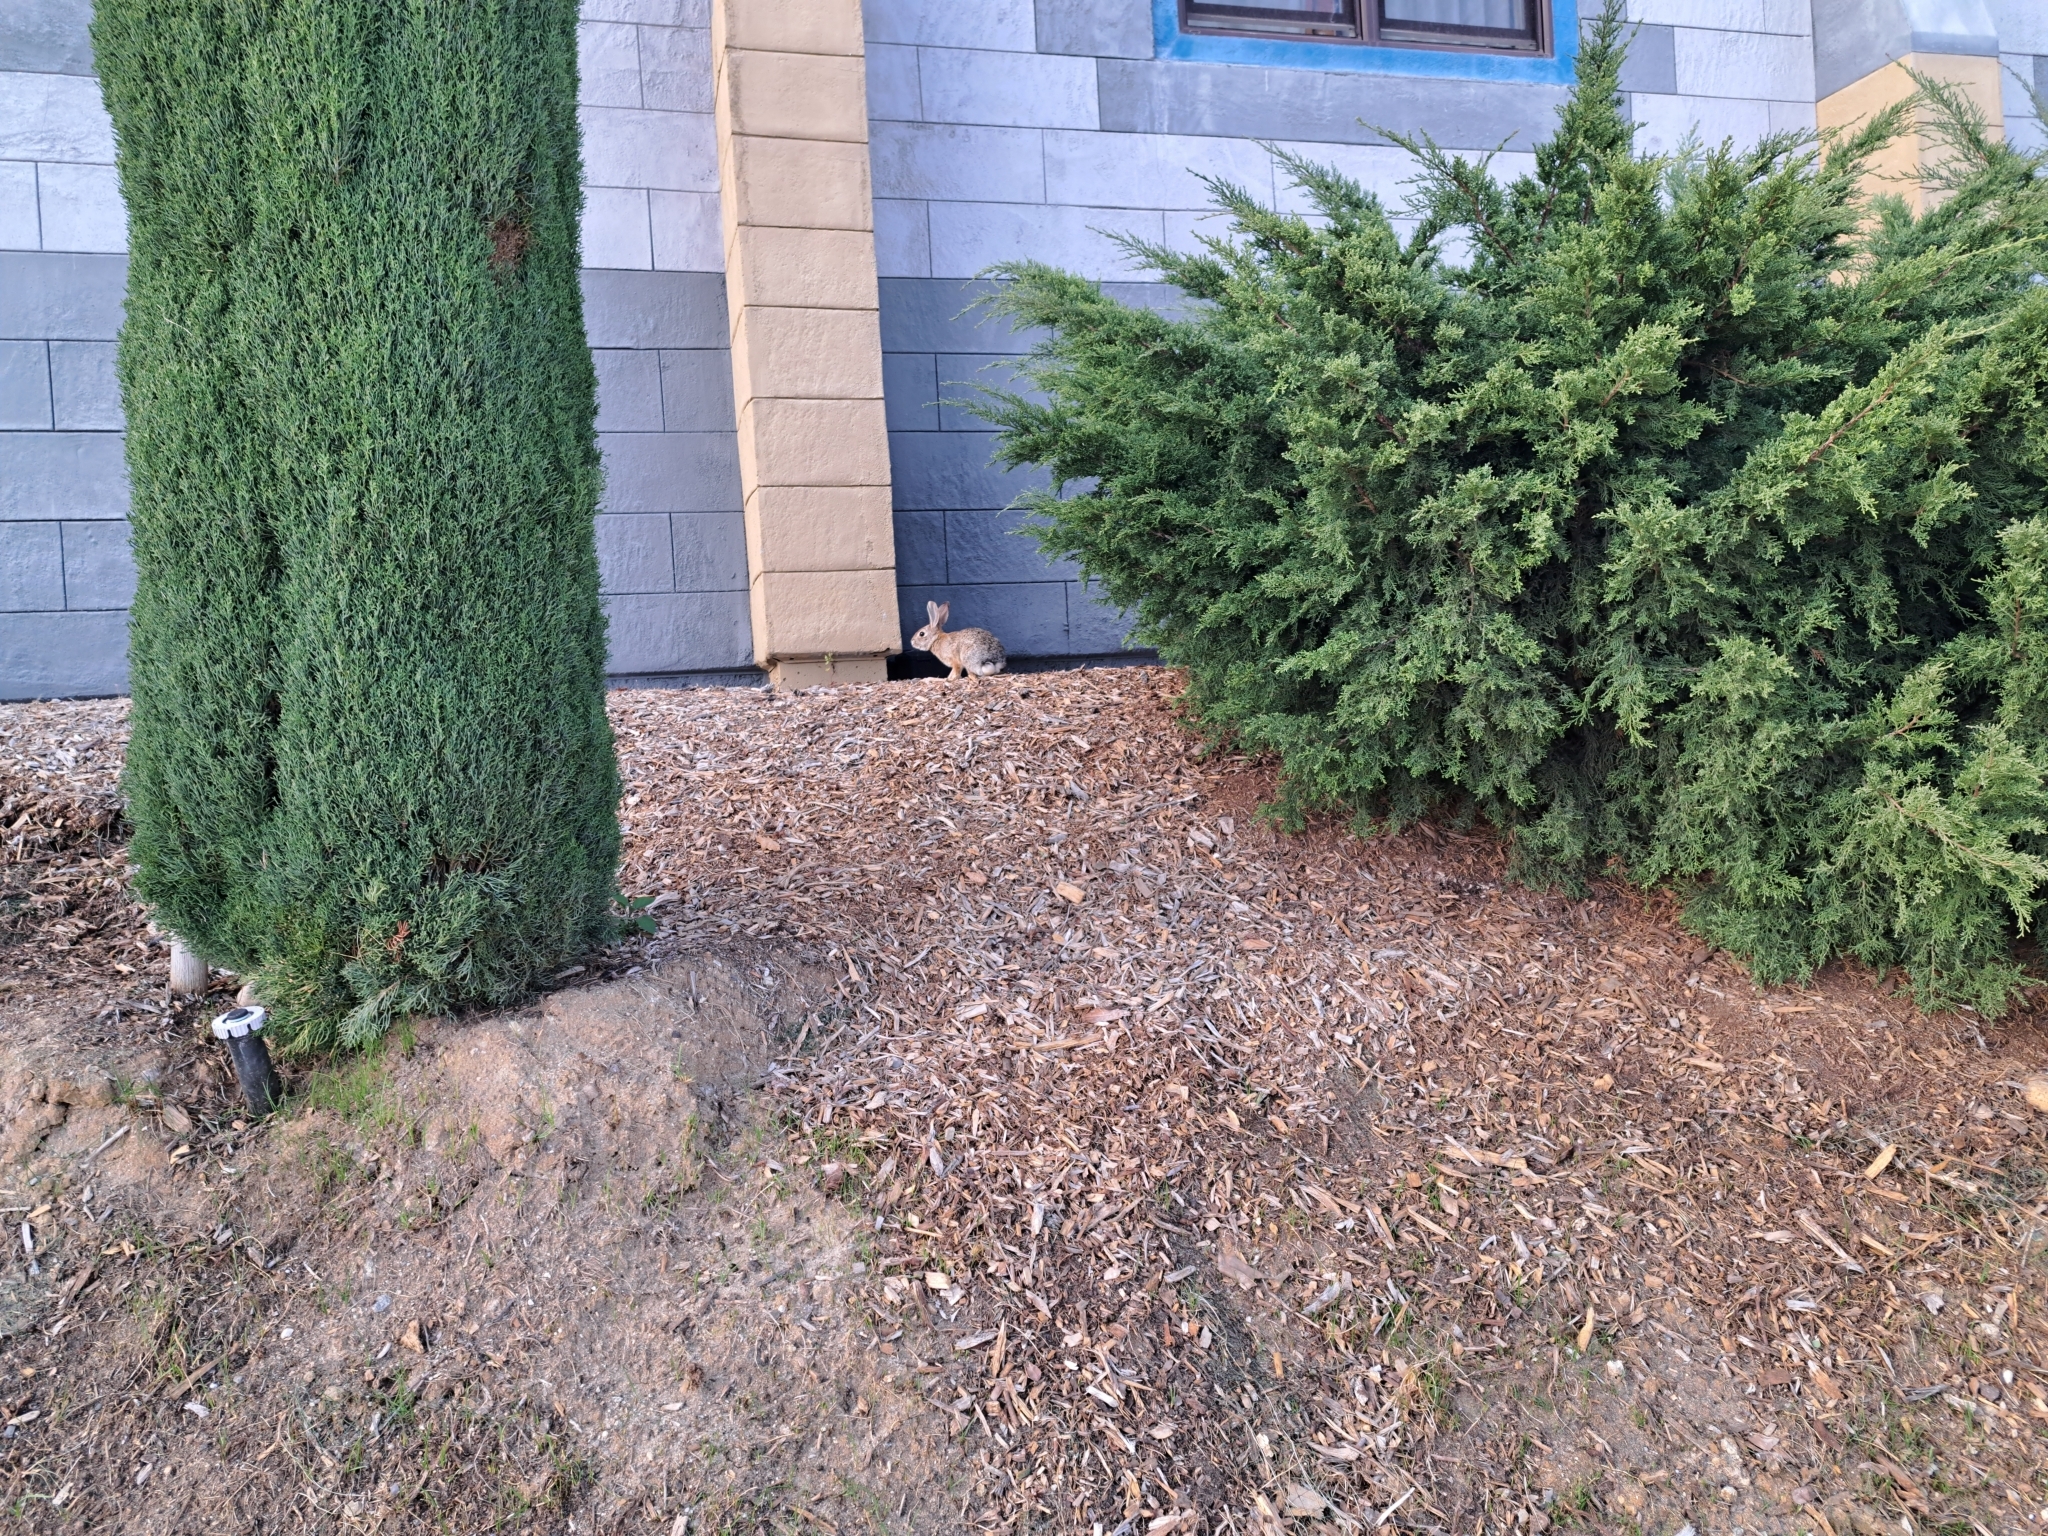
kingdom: Animalia
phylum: Chordata
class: Mammalia
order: Lagomorpha
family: Leporidae
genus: Sylvilagus
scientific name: Sylvilagus audubonii
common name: Desert cottontail
